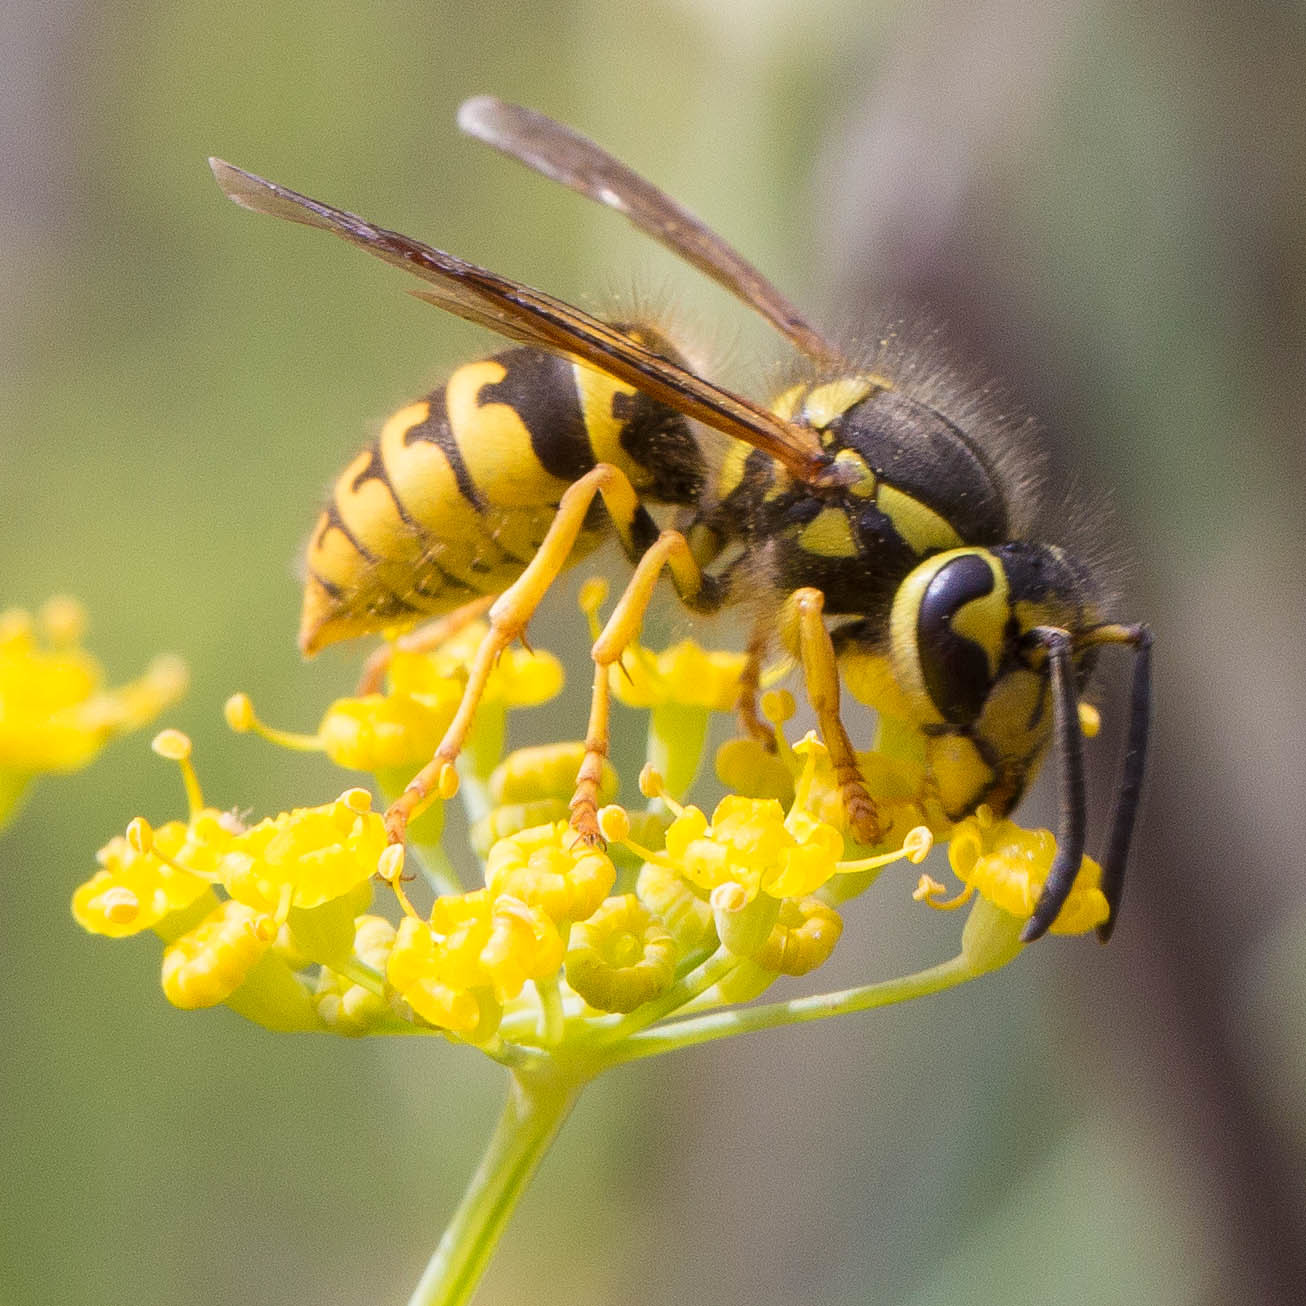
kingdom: Animalia
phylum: Arthropoda
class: Insecta
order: Hymenoptera
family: Vespidae
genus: Vespula
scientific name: Vespula pensylvanica
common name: Western yellowjacket
